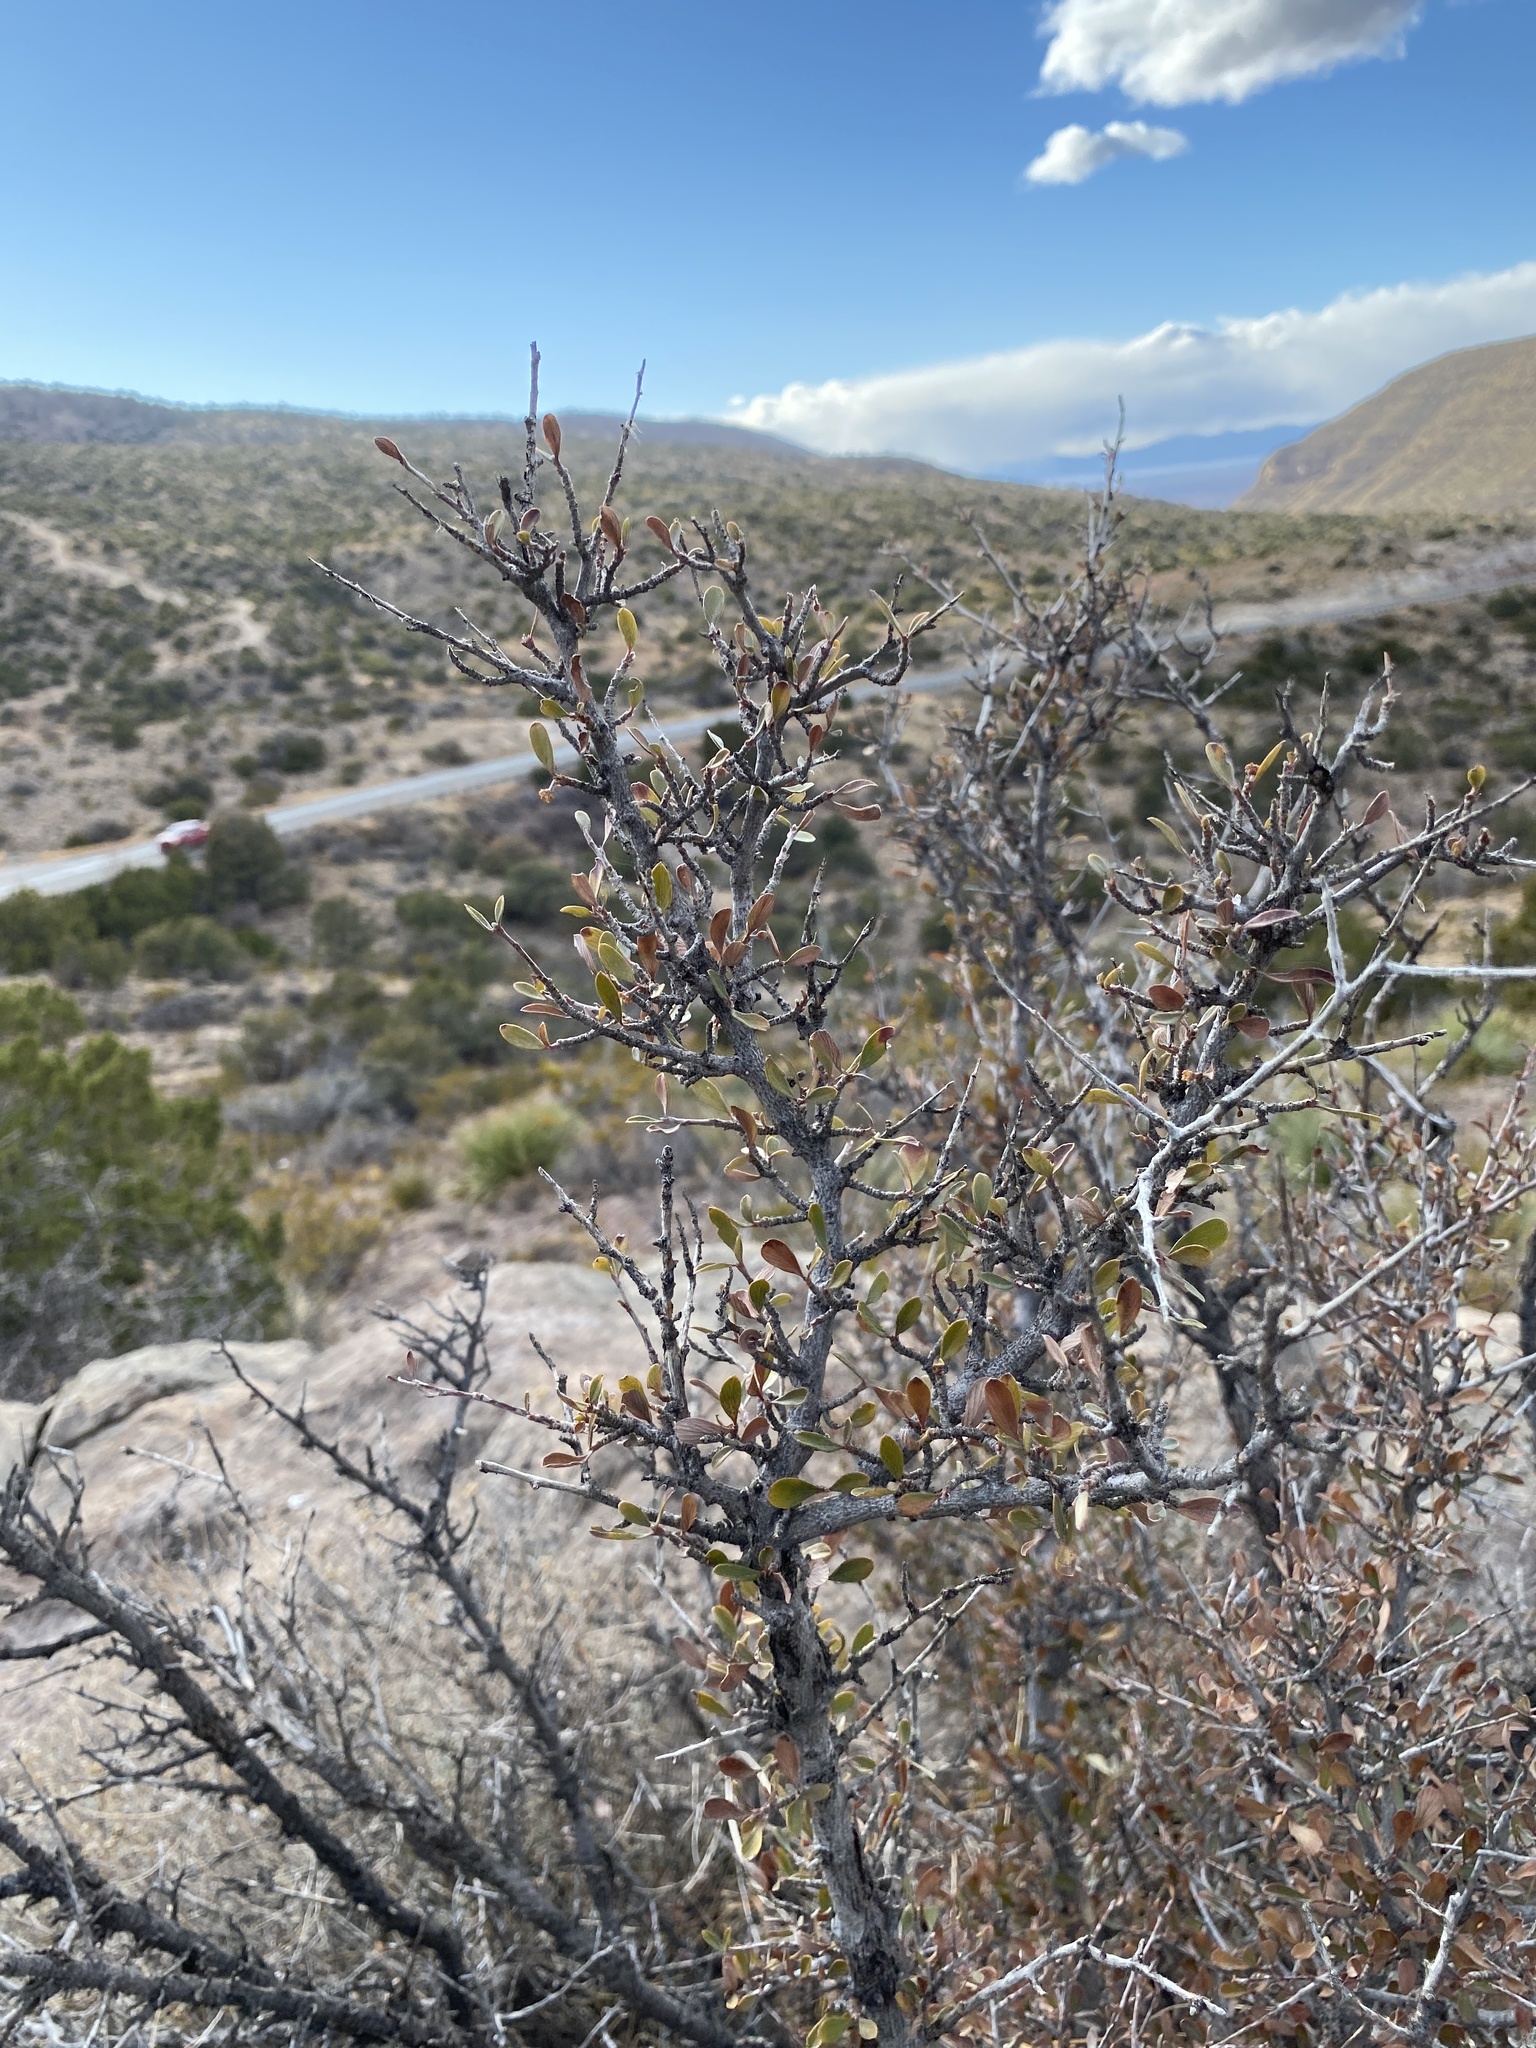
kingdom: Plantae
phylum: Tracheophyta
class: Magnoliopsida
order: Fabales
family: Fabaceae
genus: Prosopis
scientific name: Prosopis glandulosa
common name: Honey mesquite
